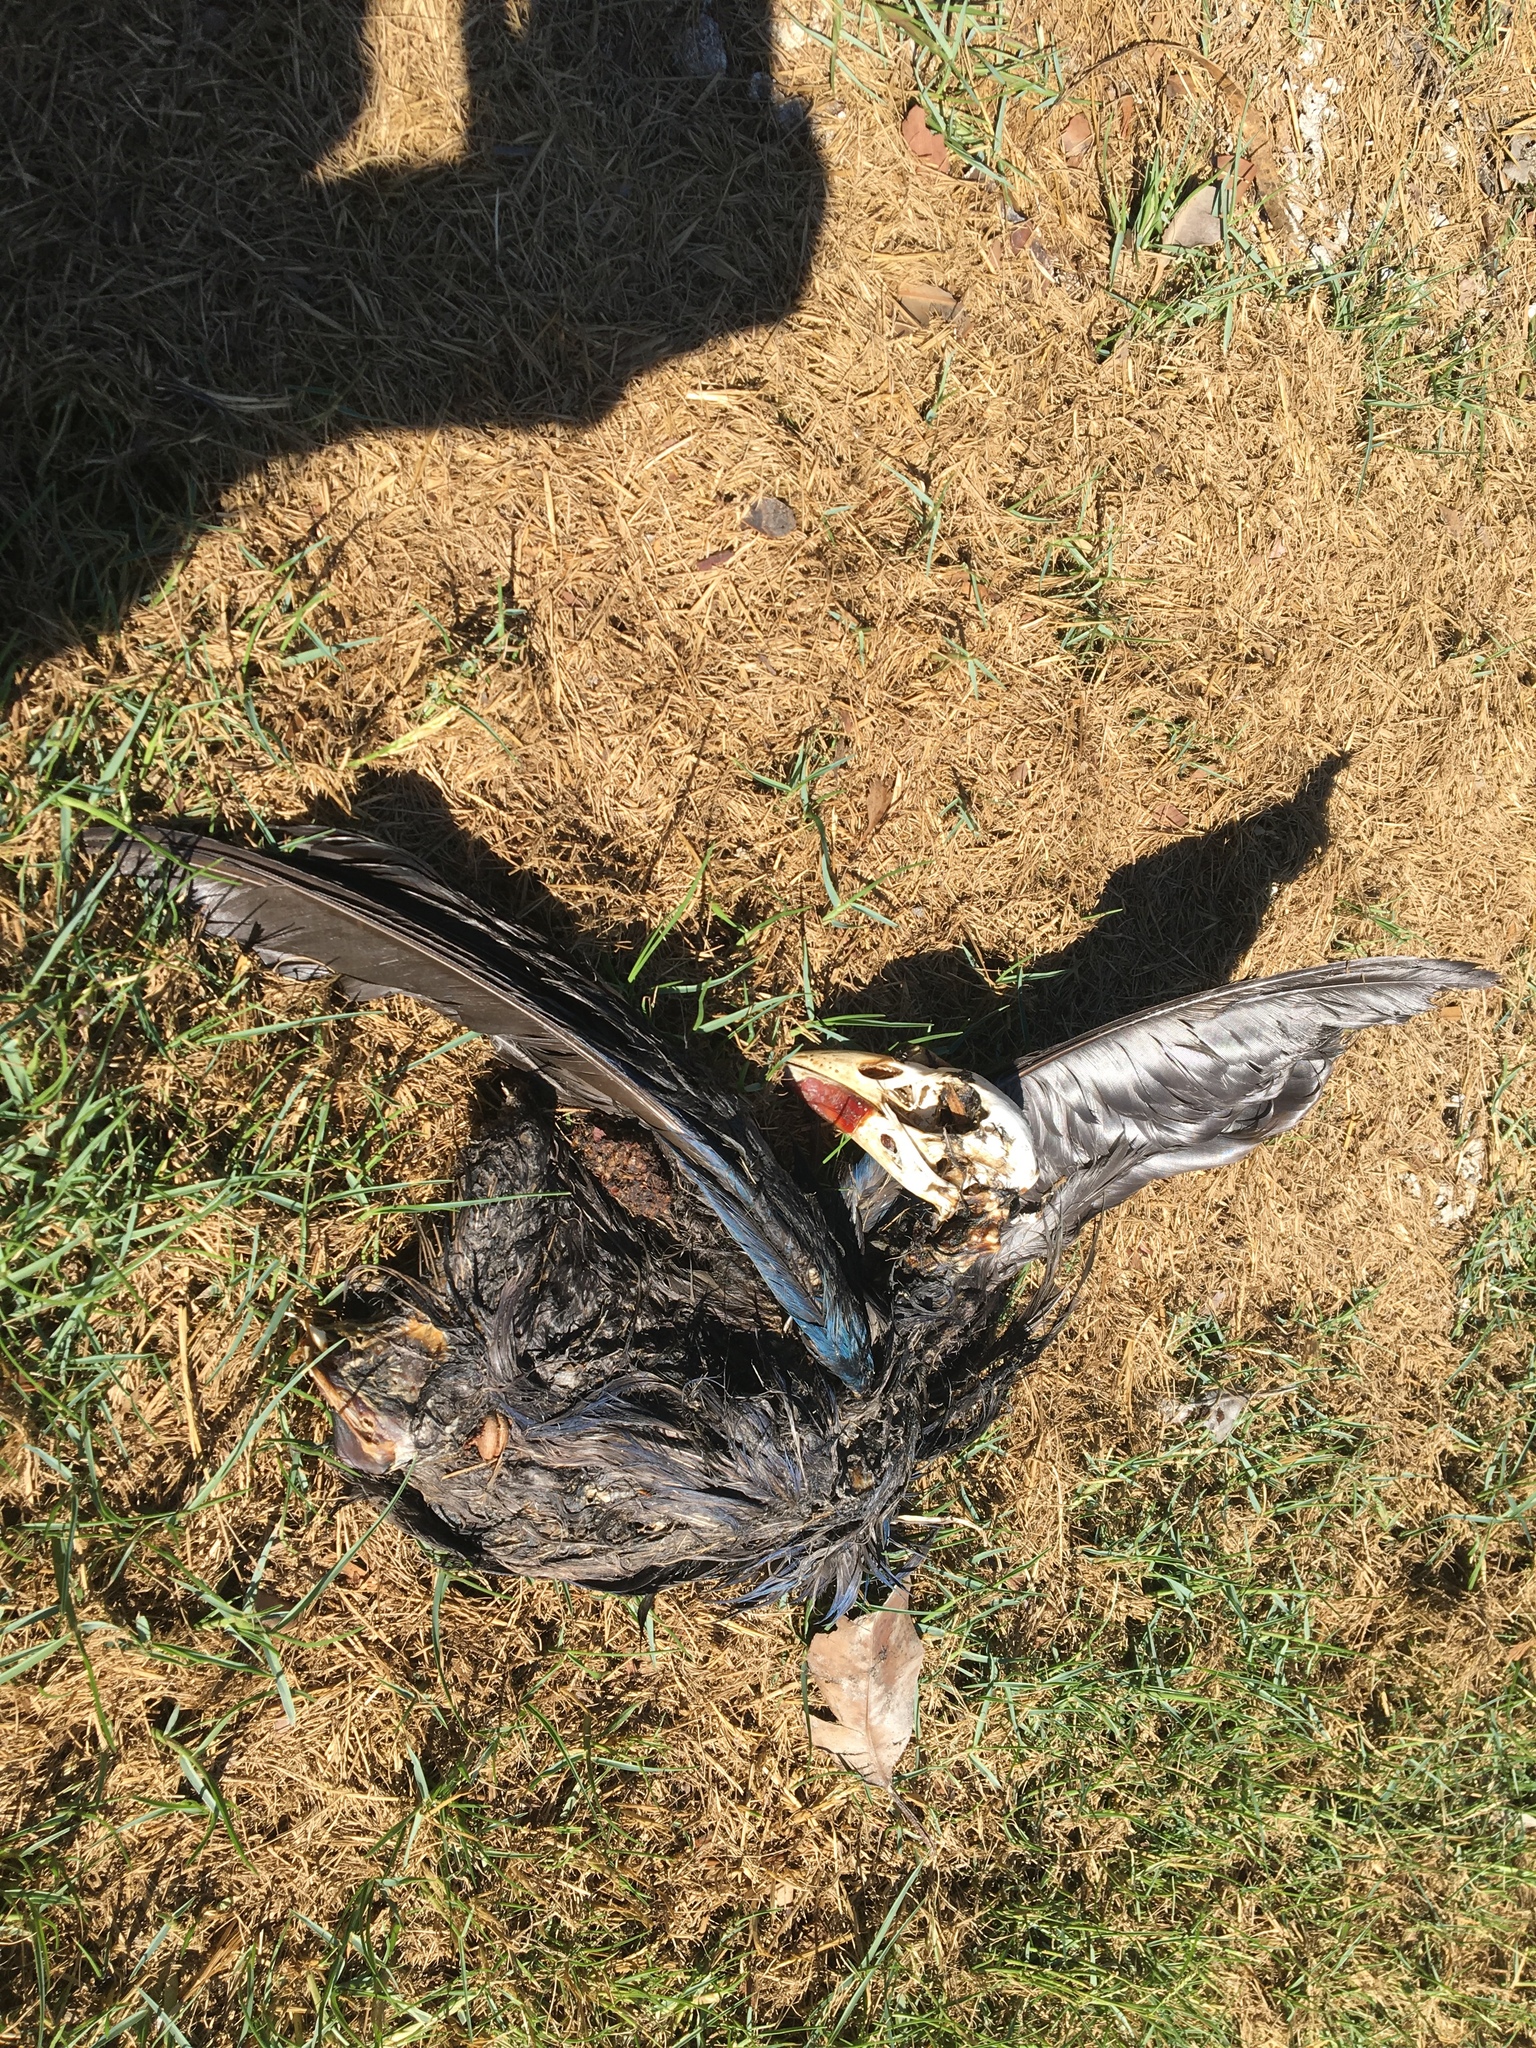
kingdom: Animalia
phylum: Chordata
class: Aves
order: Gruiformes
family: Rallidae
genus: Porphyrio
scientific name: Porphyrio melanotus
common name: Australasian swamphen
